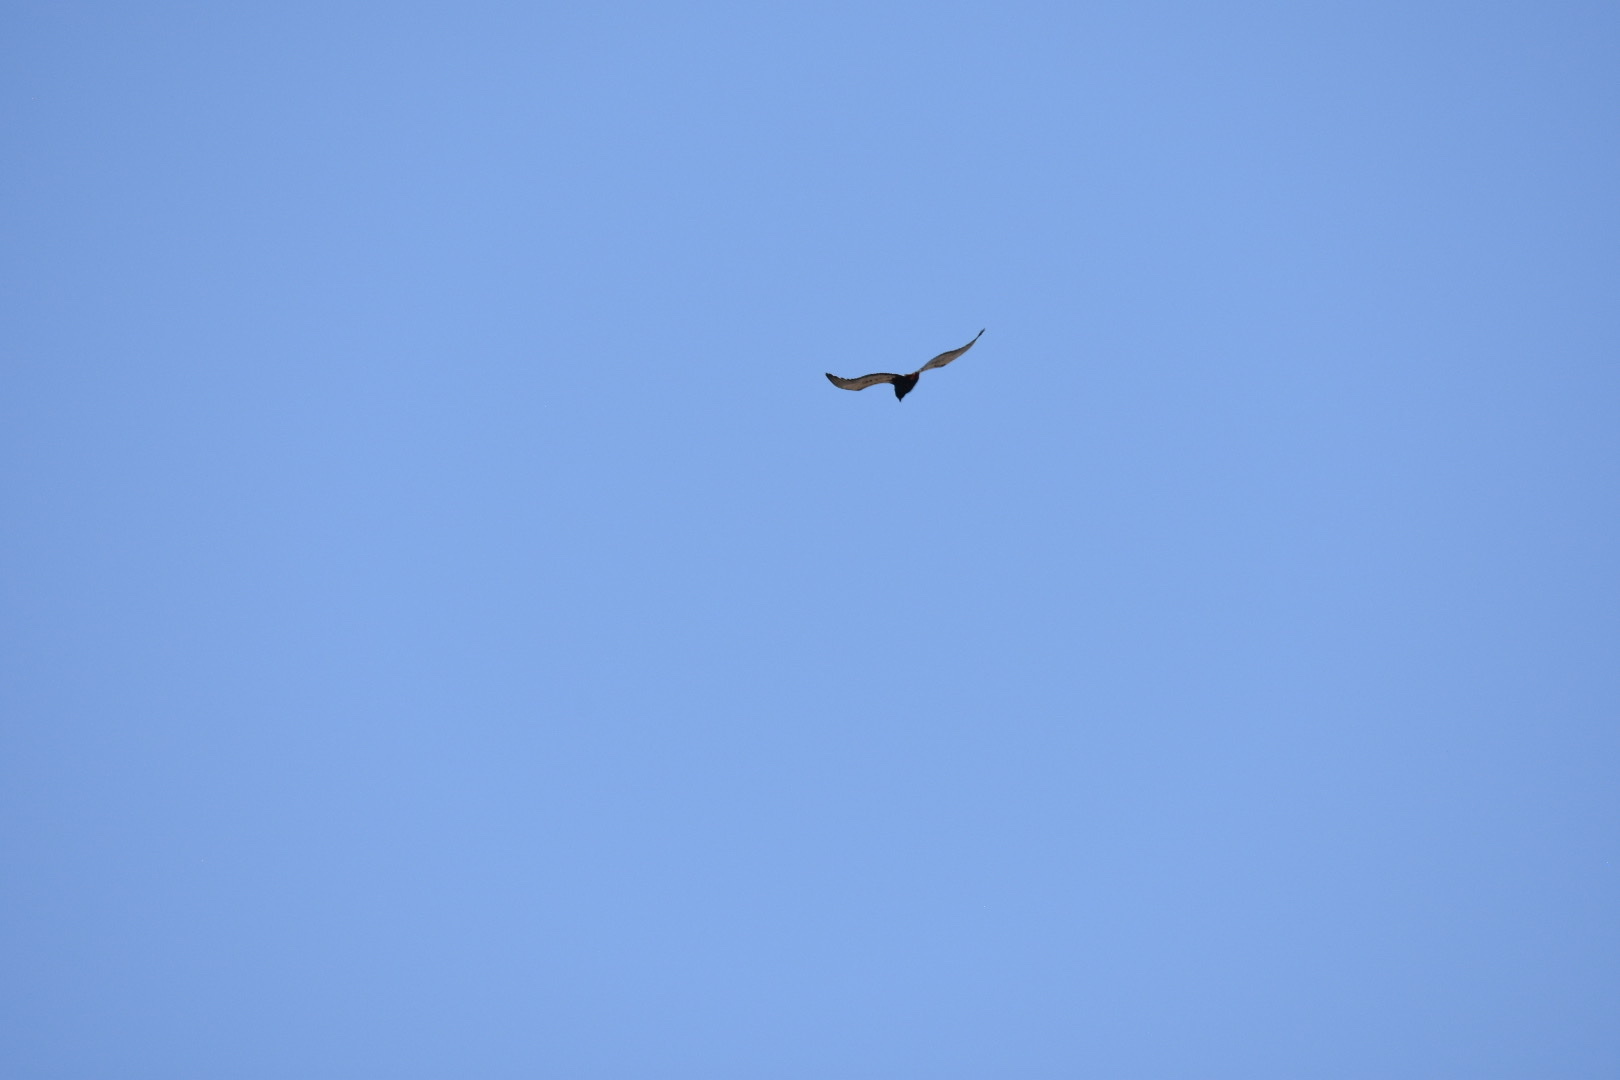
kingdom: Animalia
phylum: Chordata
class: Aves
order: Accipitriformes
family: Accipitridae
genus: Terathopius
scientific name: Terathopius ecaudatus
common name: Bateleur
